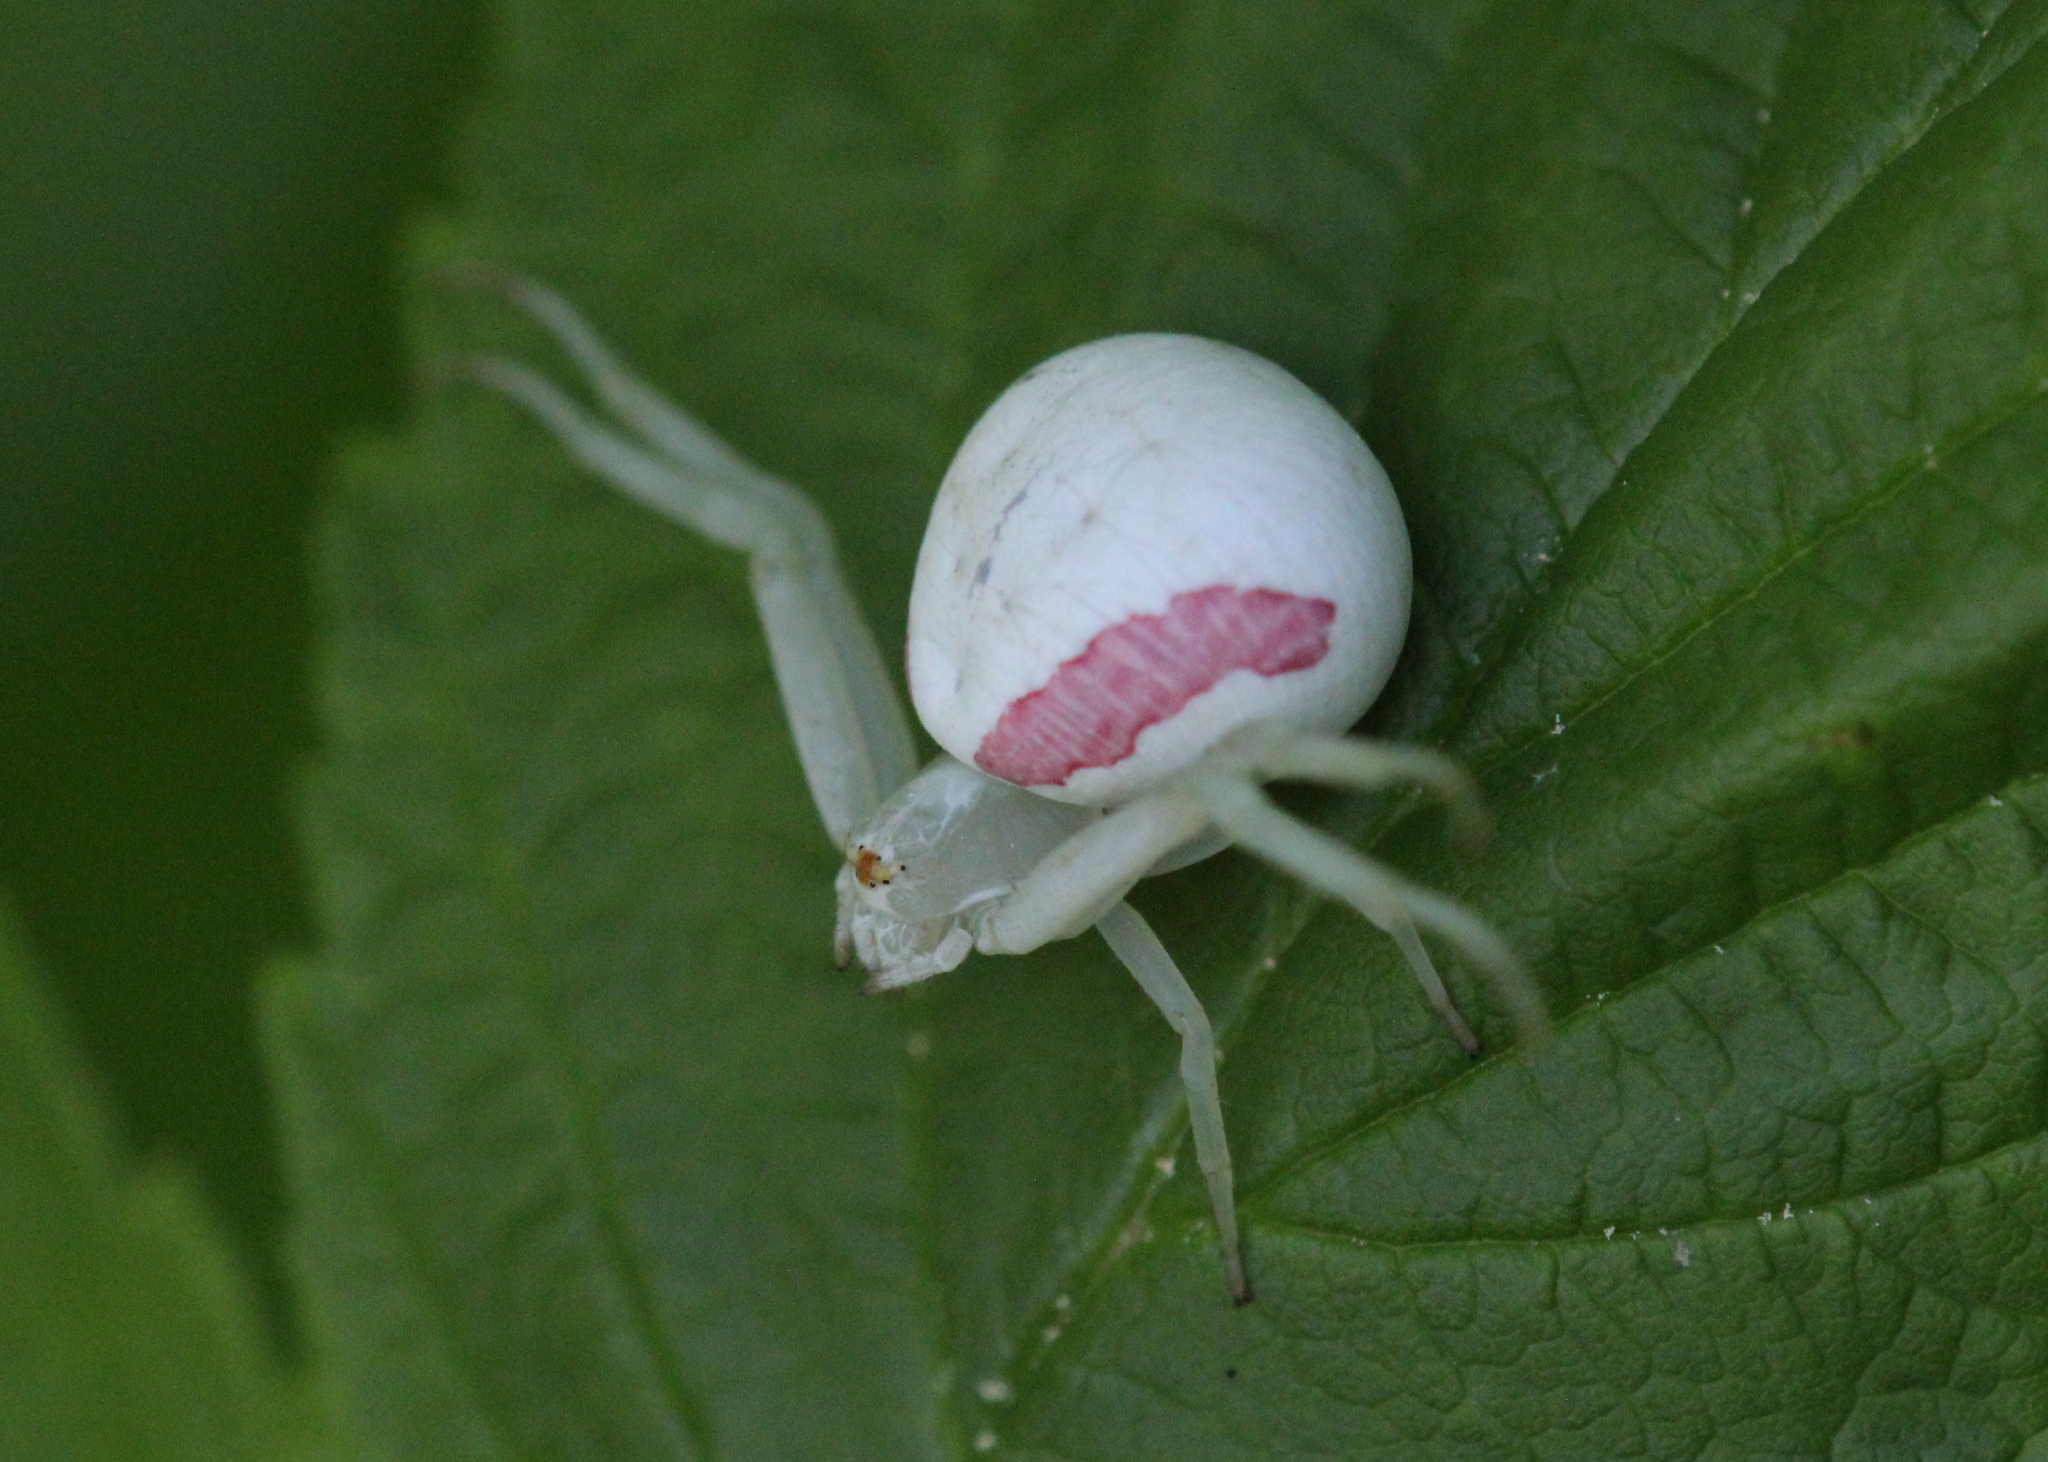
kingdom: Animalia
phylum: Arthropoda
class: Arachnida
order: Araneae
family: Thomisidae
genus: Misumena
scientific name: Misumena vatia
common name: Goldenrod crab spider
